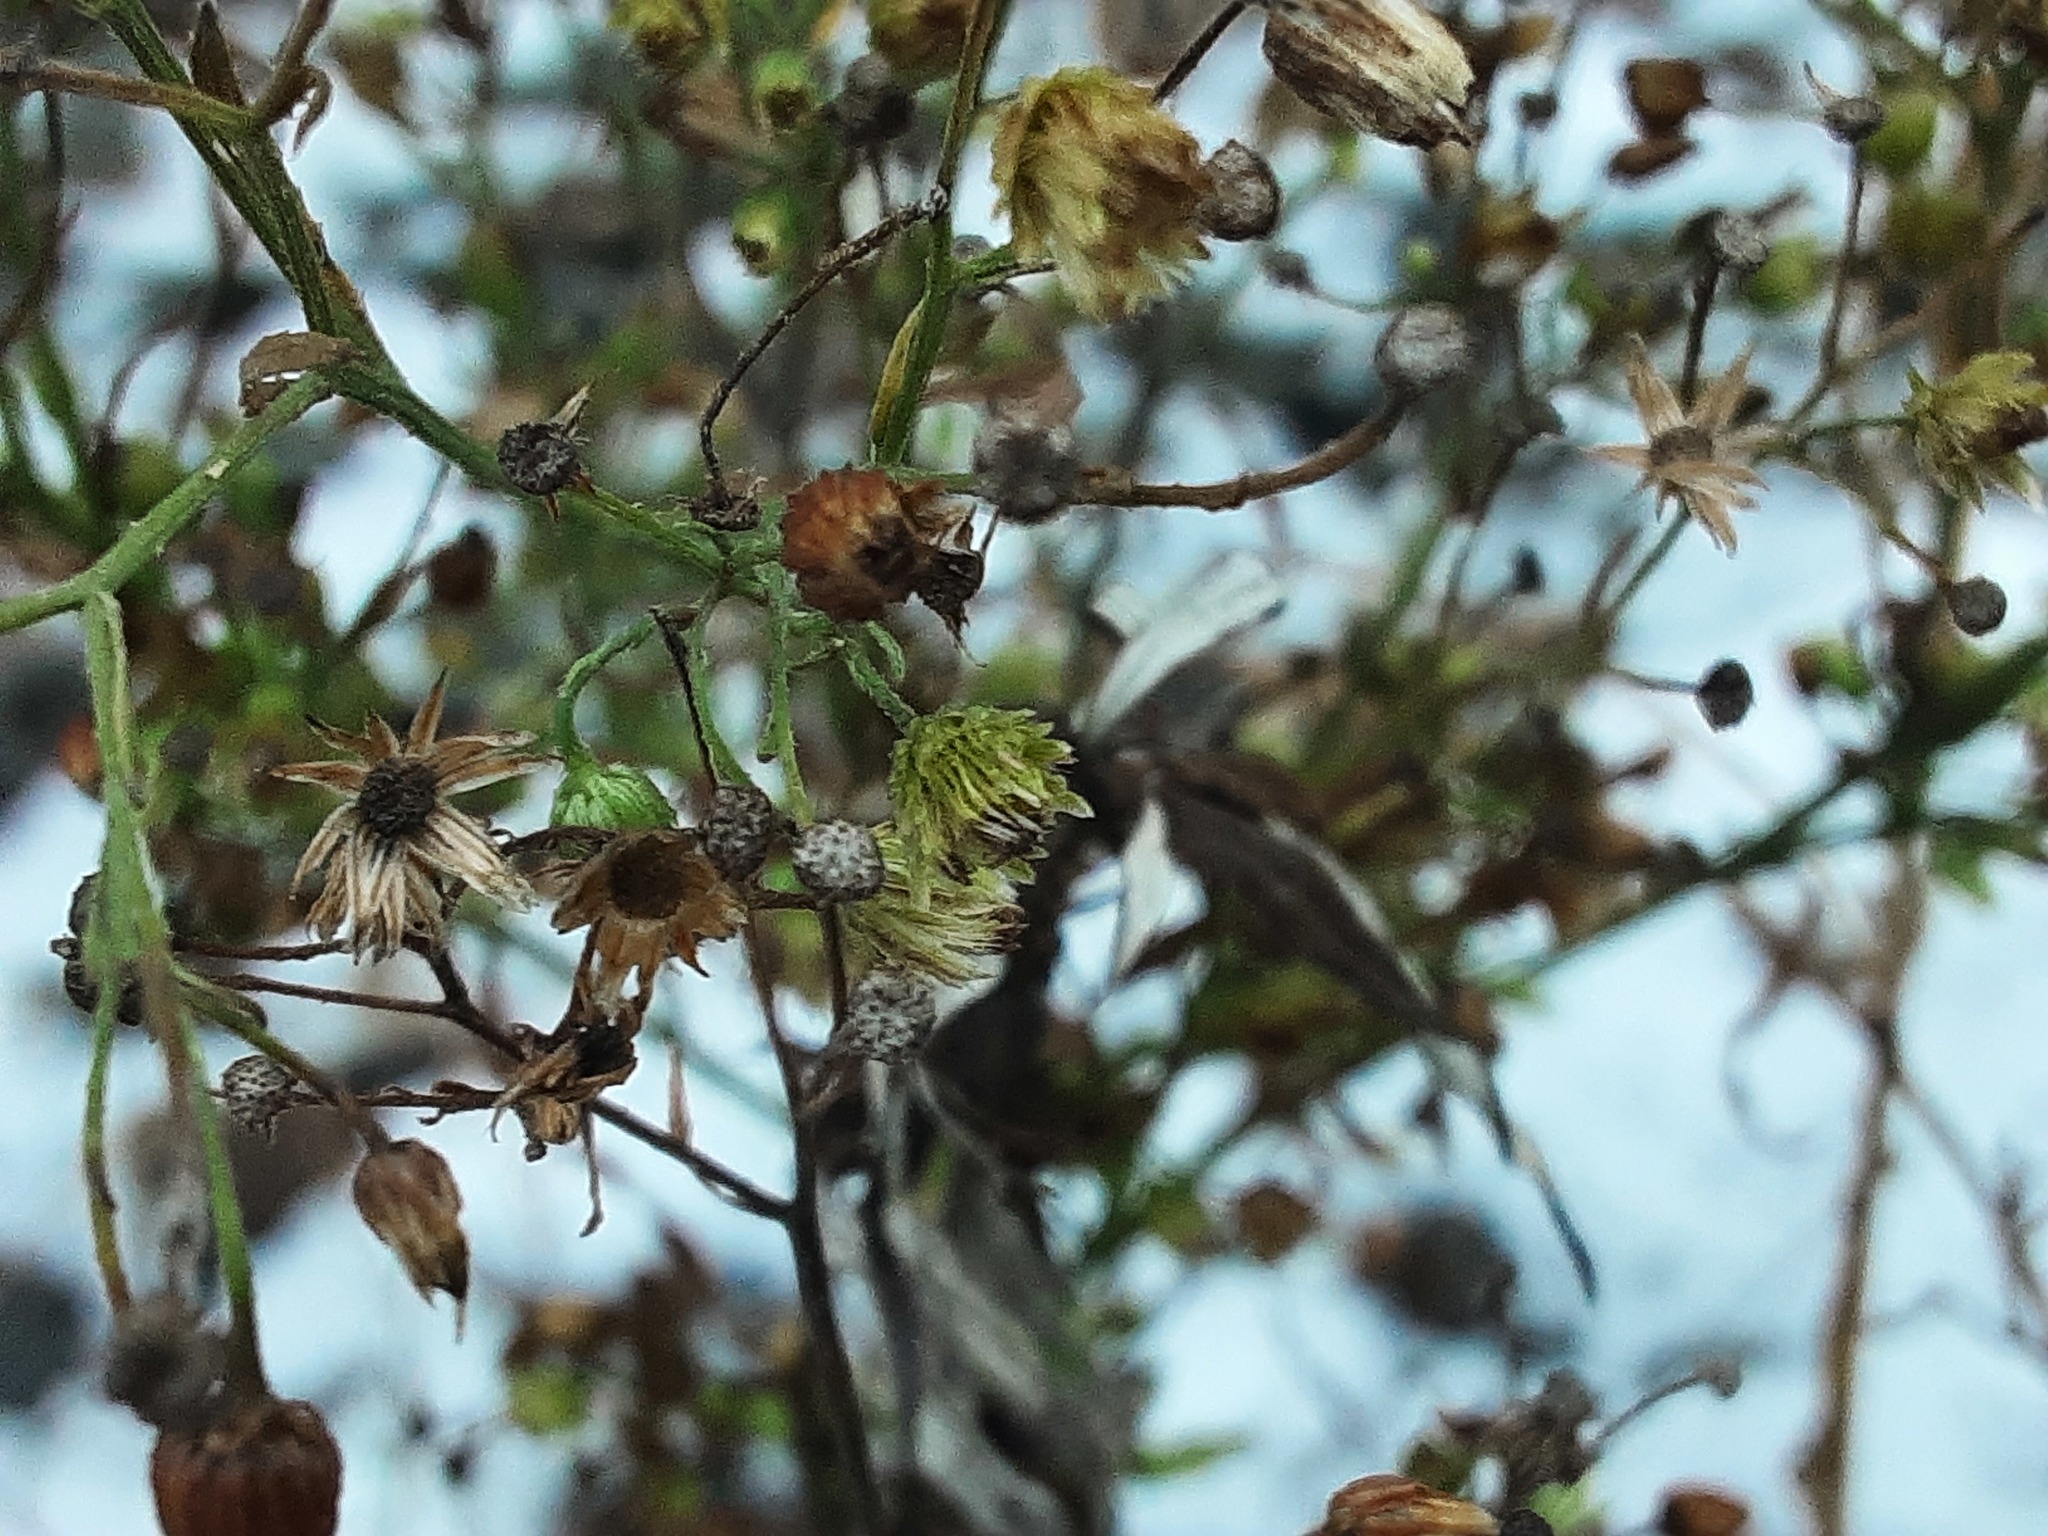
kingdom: Plantae
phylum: Tracheophyta
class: Magnoliopsida
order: Asterales
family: Asteraceae
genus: Erigeron
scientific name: Erigeron canadensis
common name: Canadian fleabane
